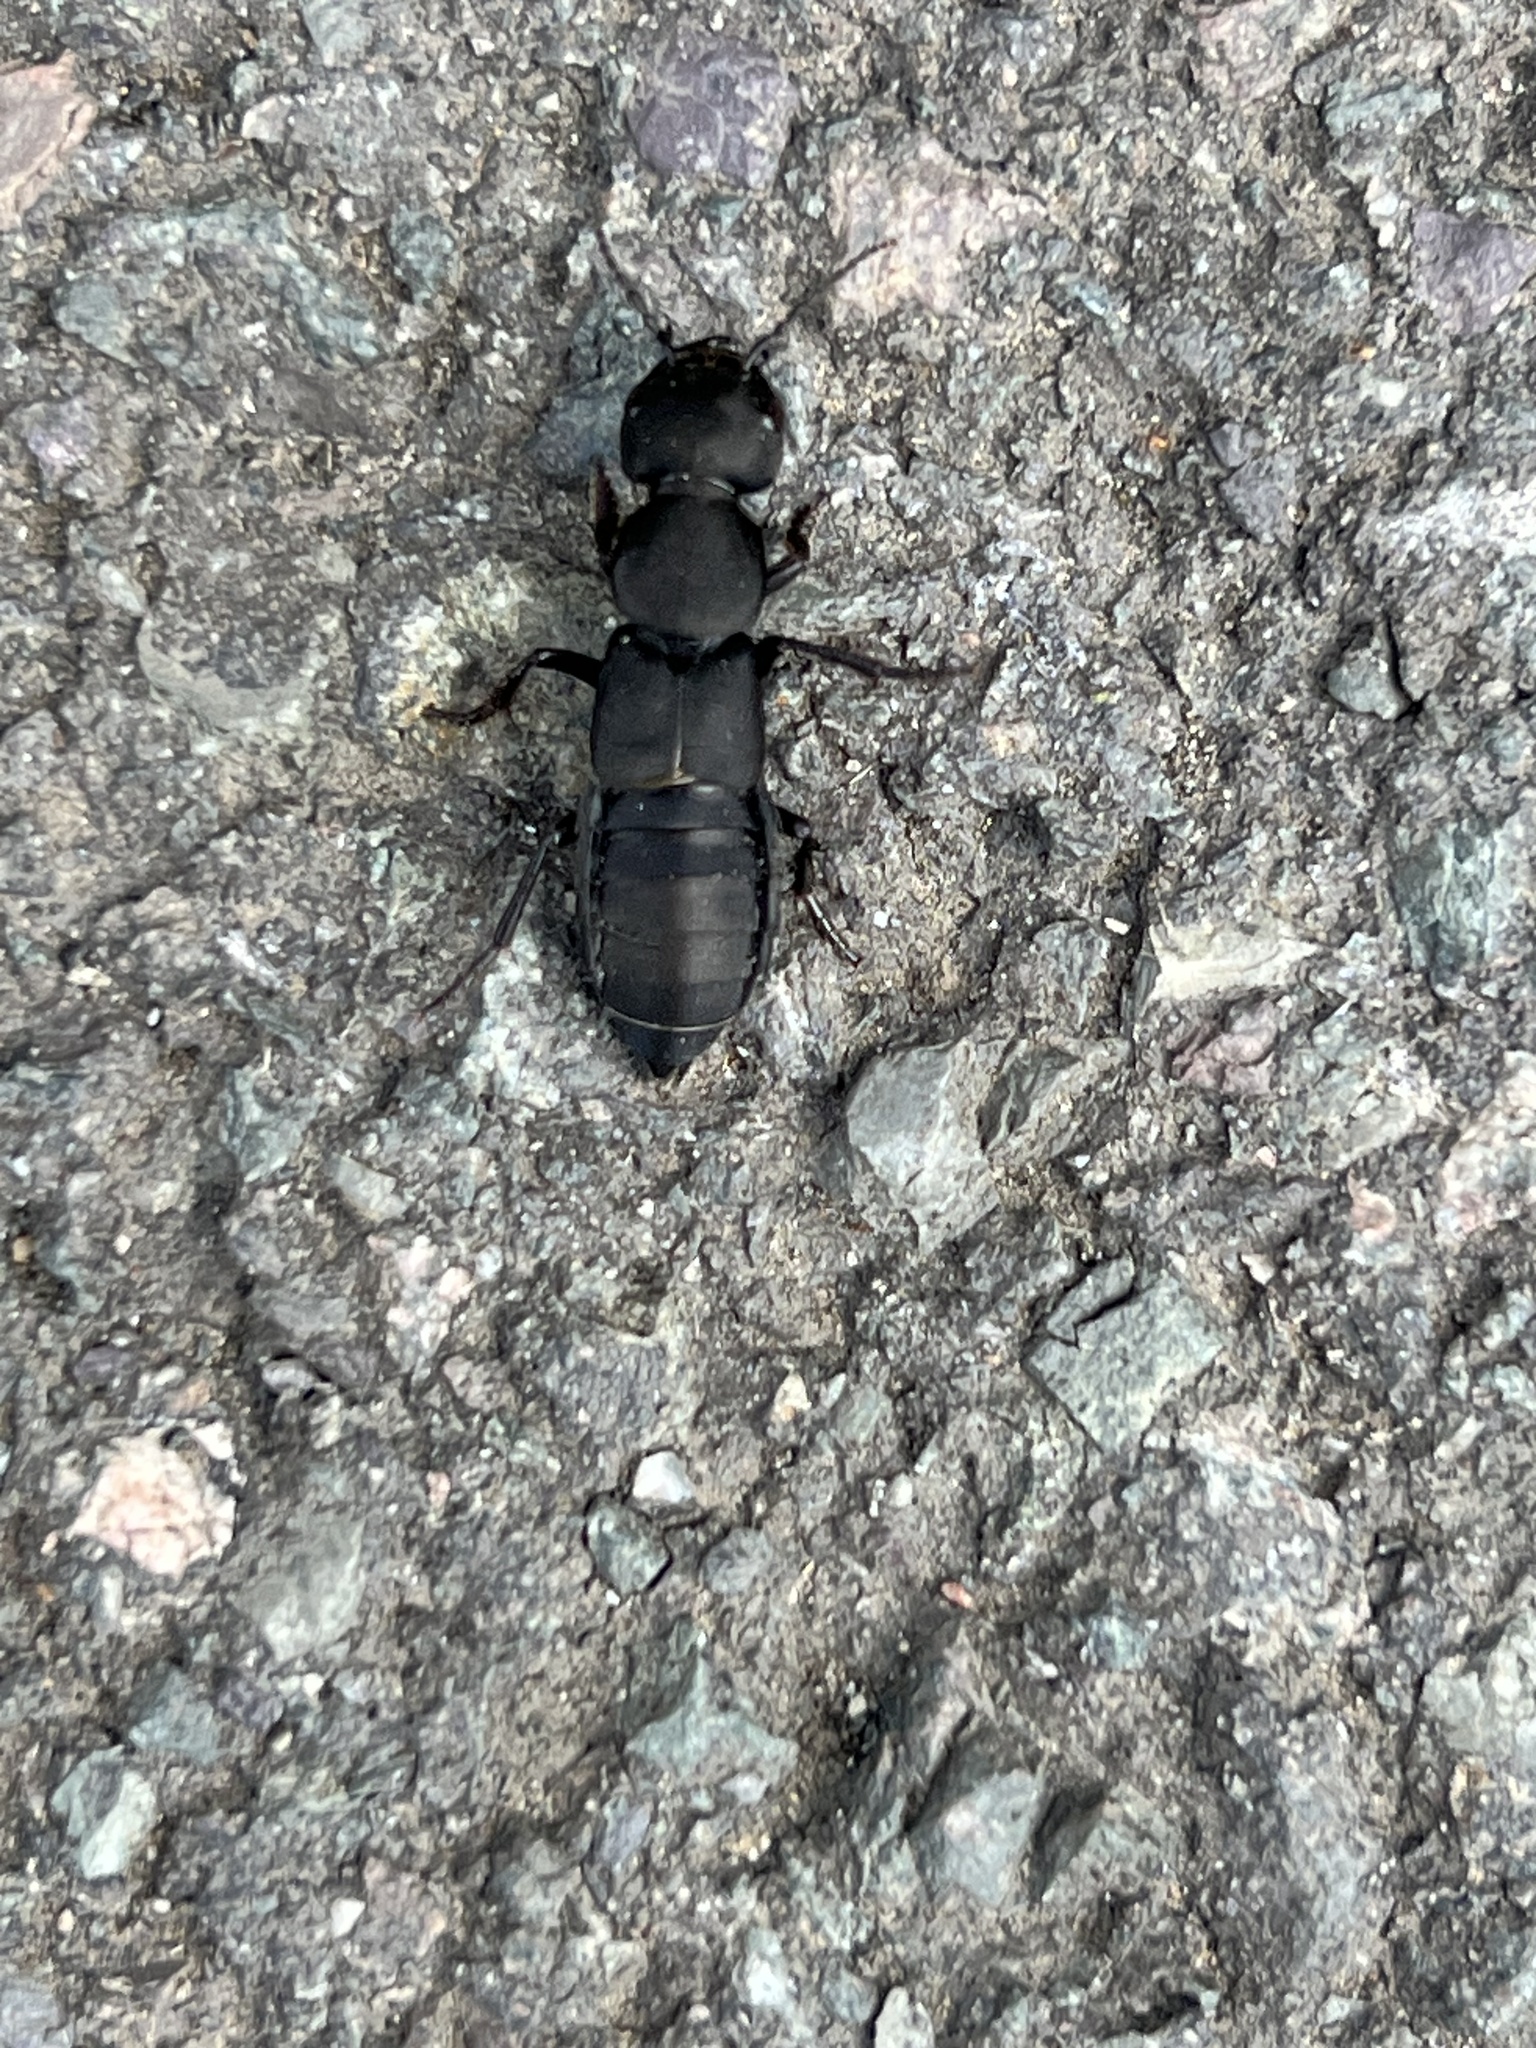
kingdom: Animalia
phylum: Arthropoda
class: Insecta
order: Coleoptera
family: Staphylinidae
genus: Ocypus
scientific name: Ocypus olens
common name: Devil's coach-horse
